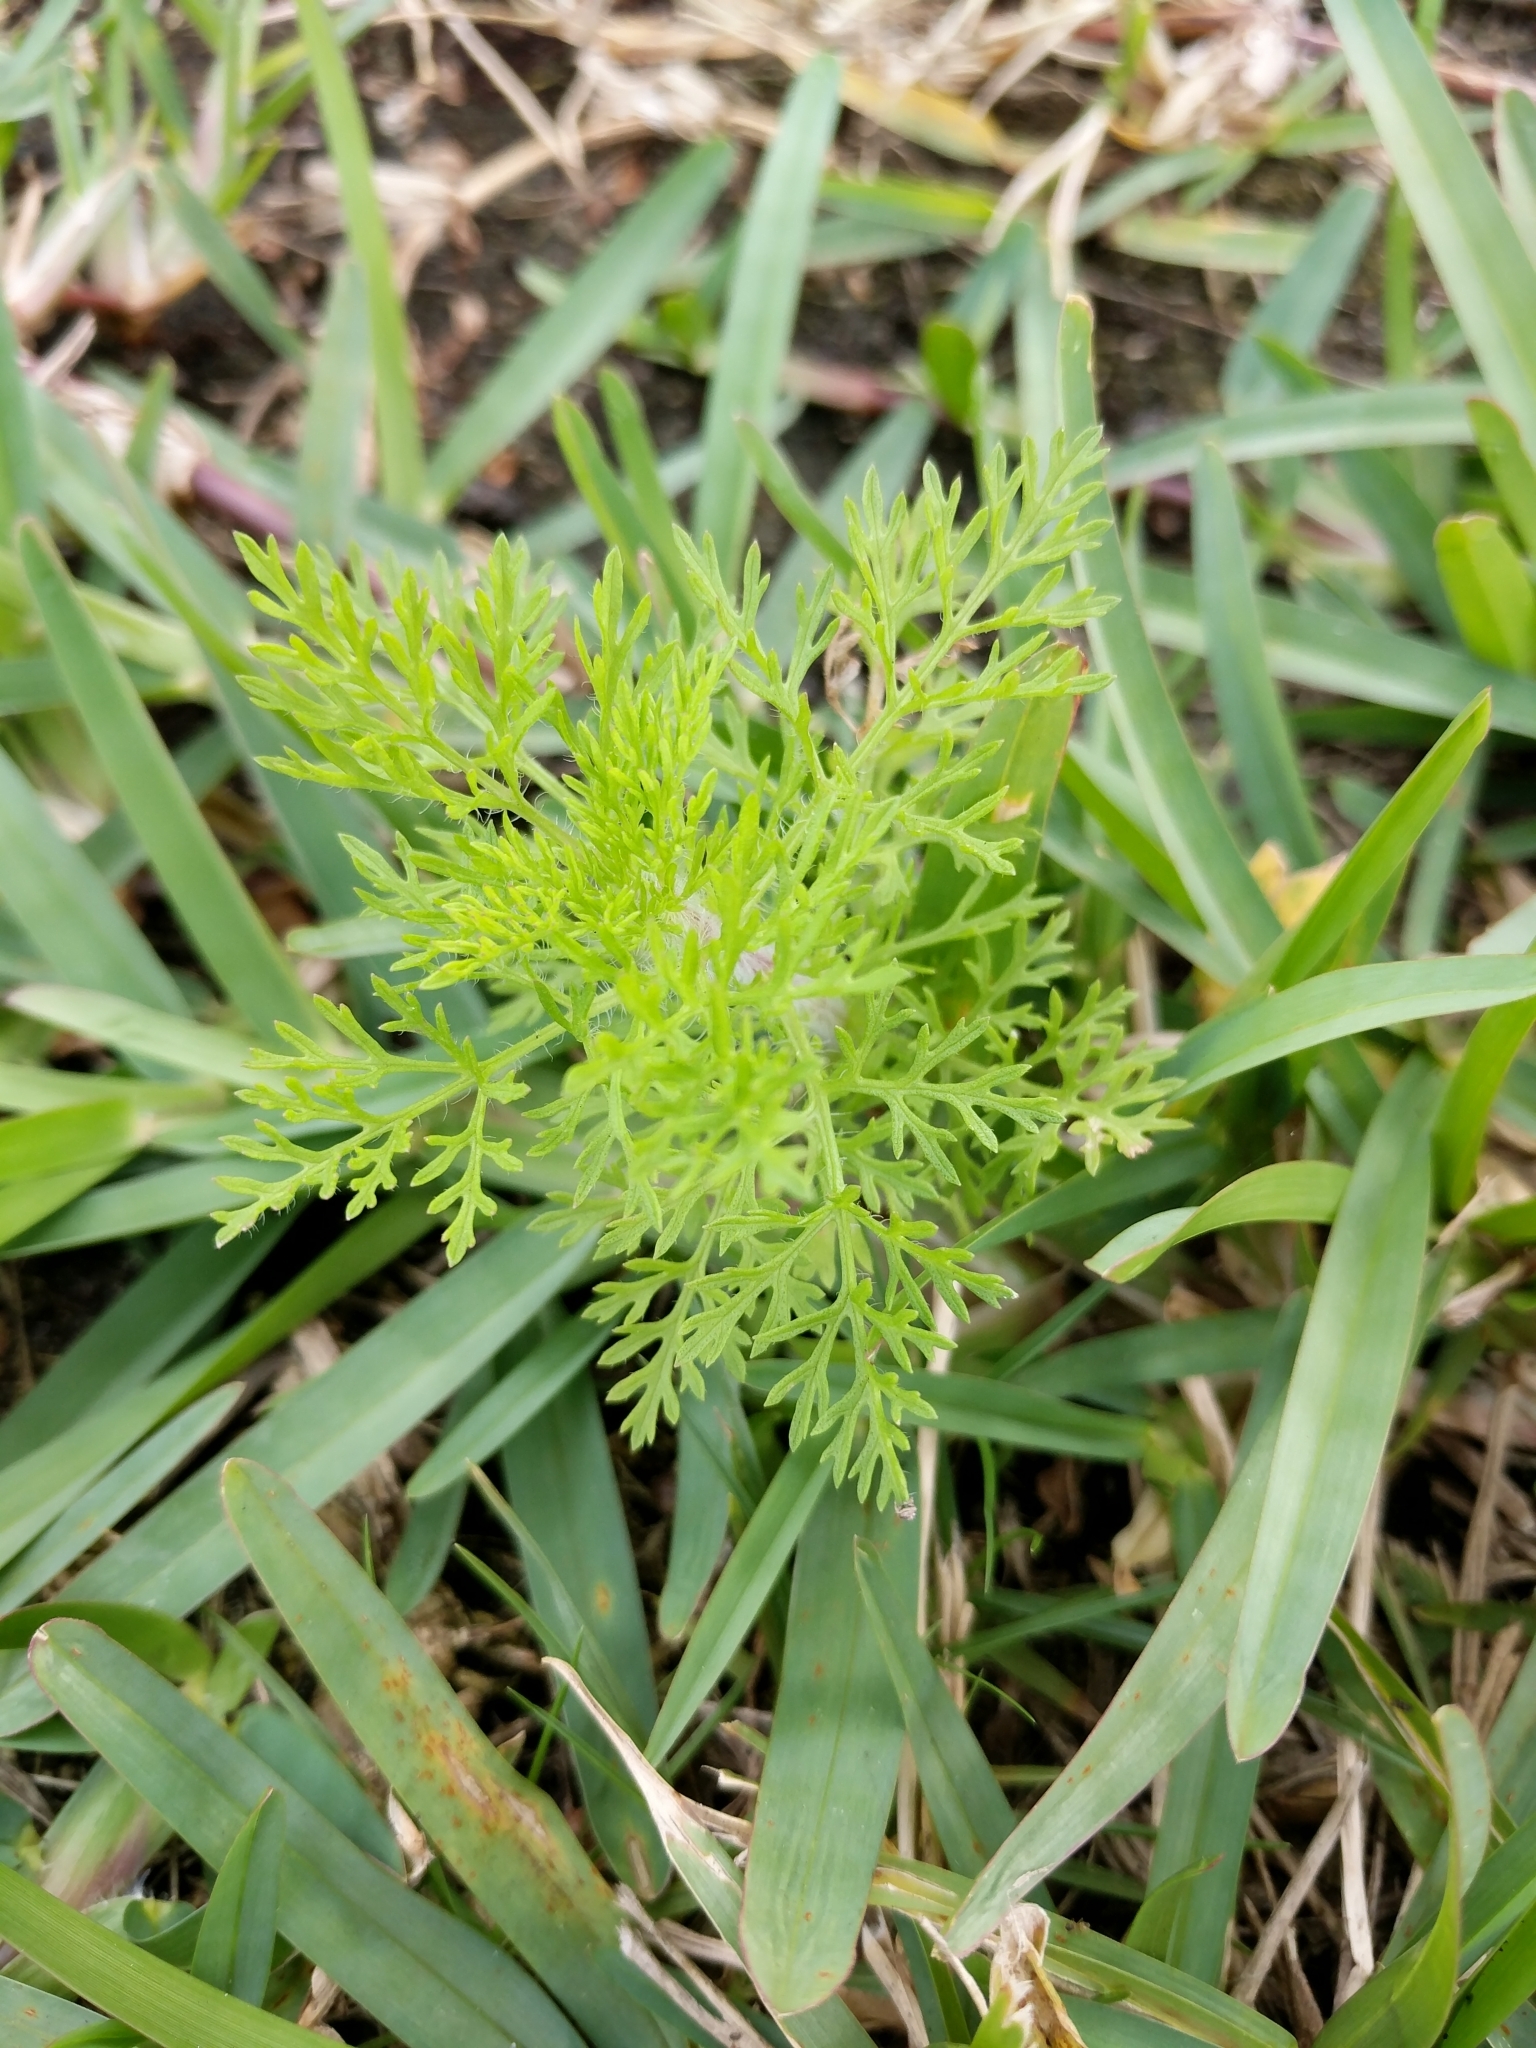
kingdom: Plantae
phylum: Tracheophyta
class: Magnoliopsida
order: Asterales
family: Asteraceae
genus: Eupatorium
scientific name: Eupatorium capillifolium
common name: Dog-fennel
